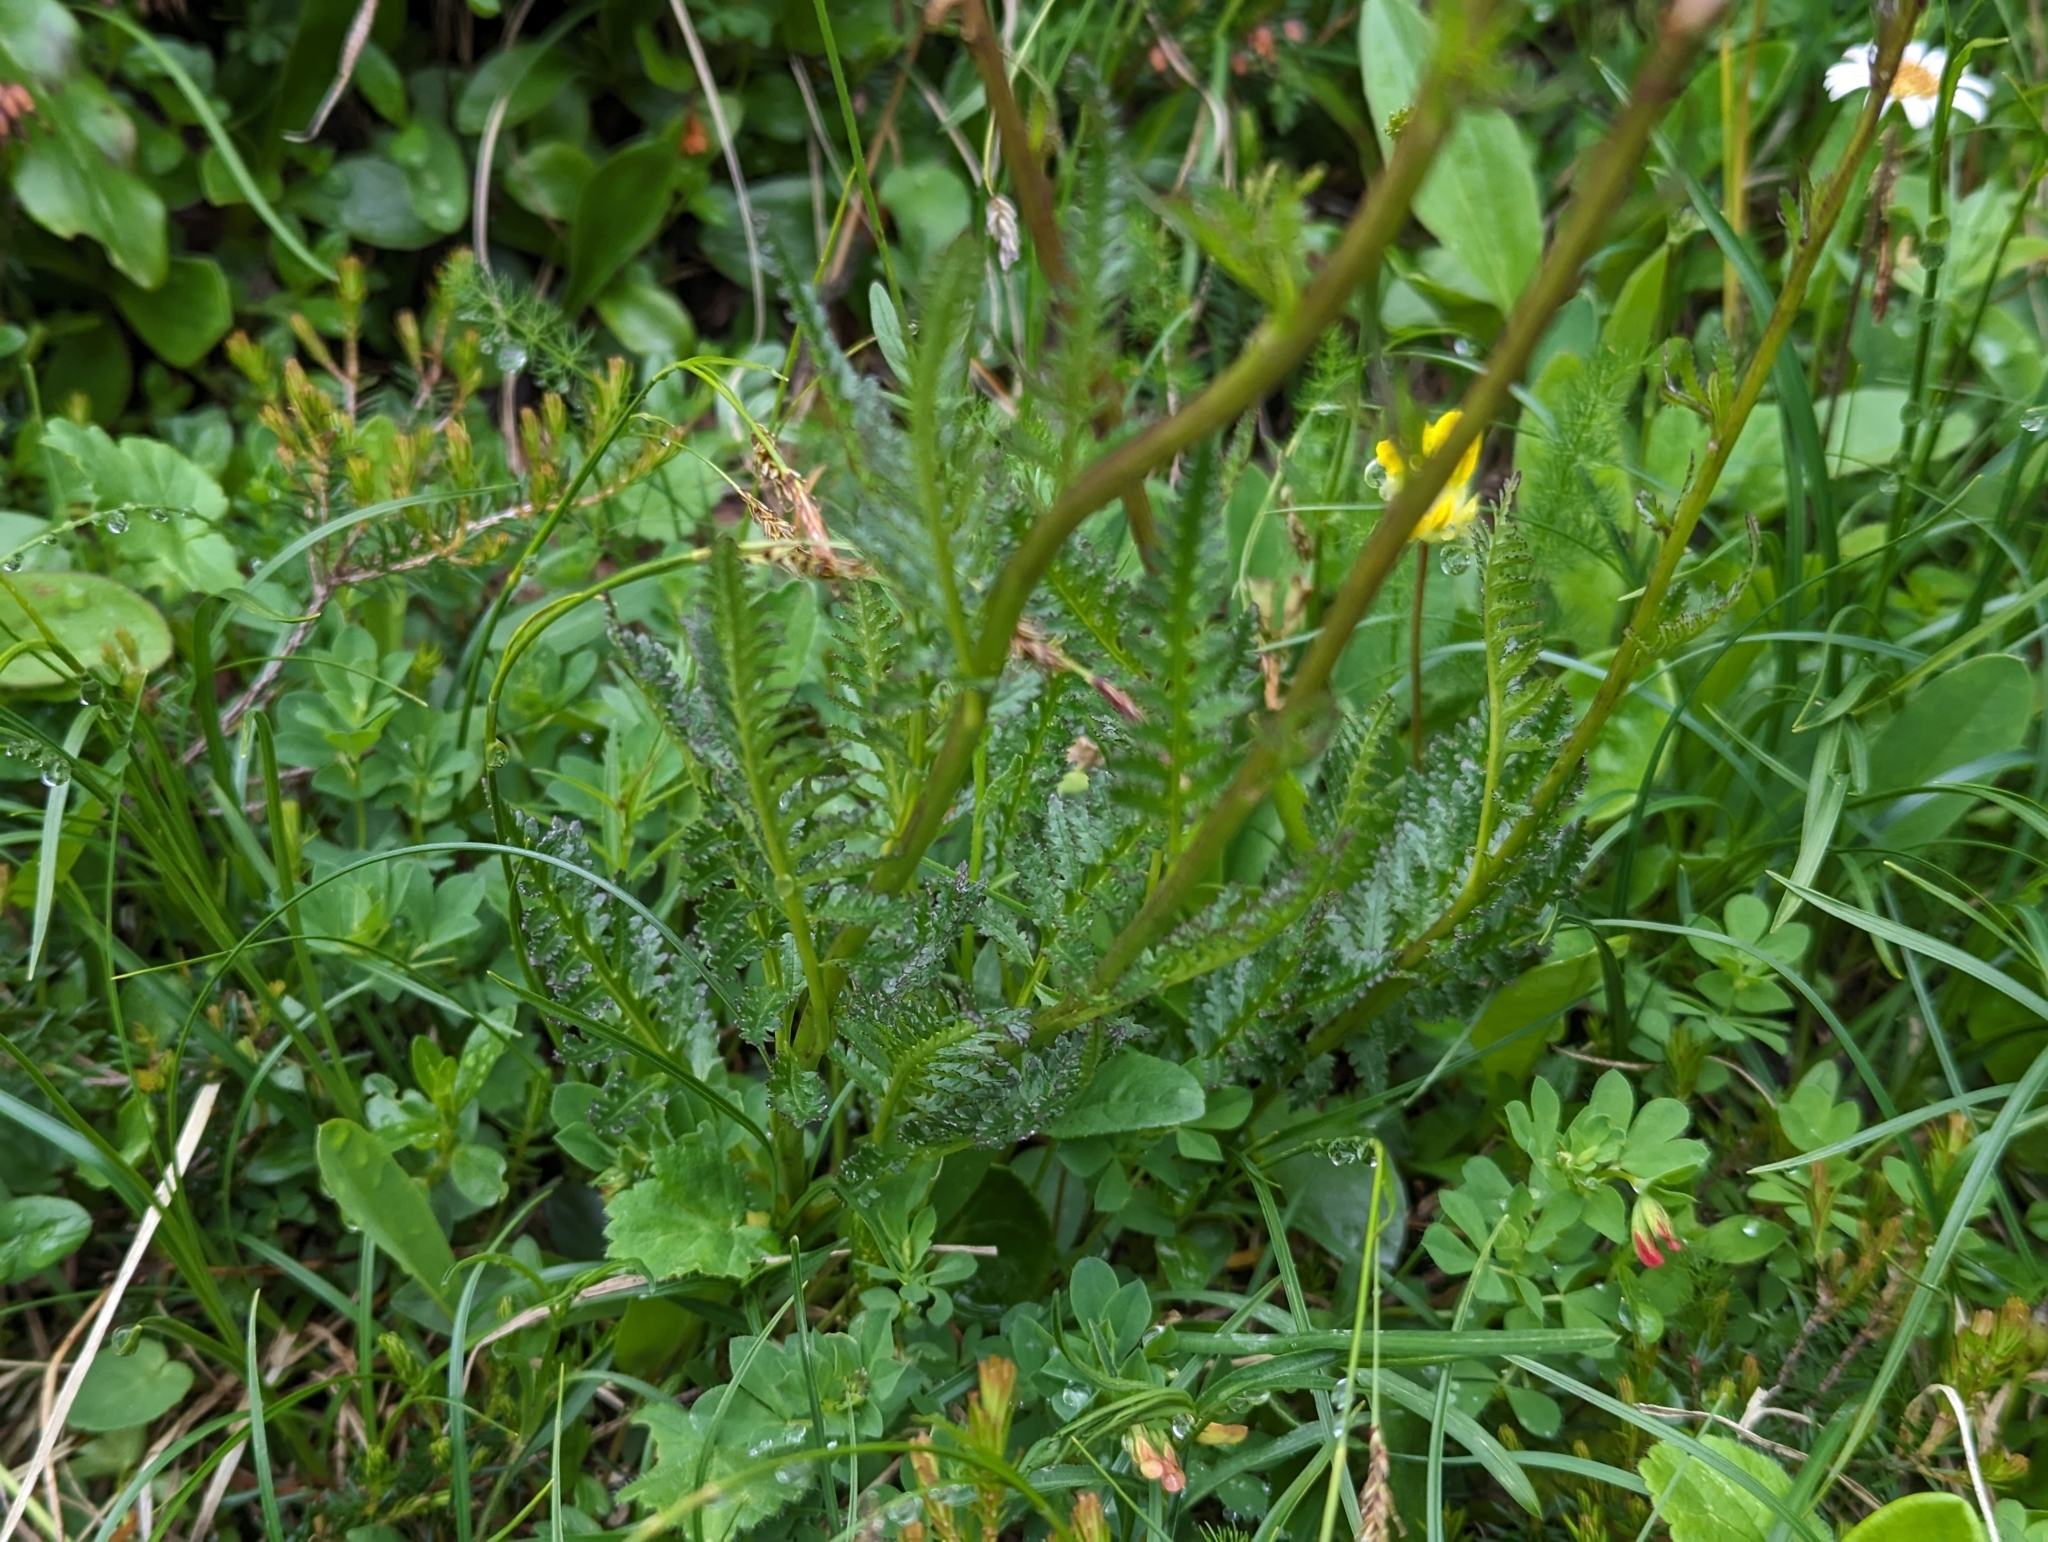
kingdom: Plantae
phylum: Tracheophyta
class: Magnoliopsida
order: Lamiales
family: Orobanchaceae
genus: Pedicularis
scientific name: Pedicularis rostratospicata
